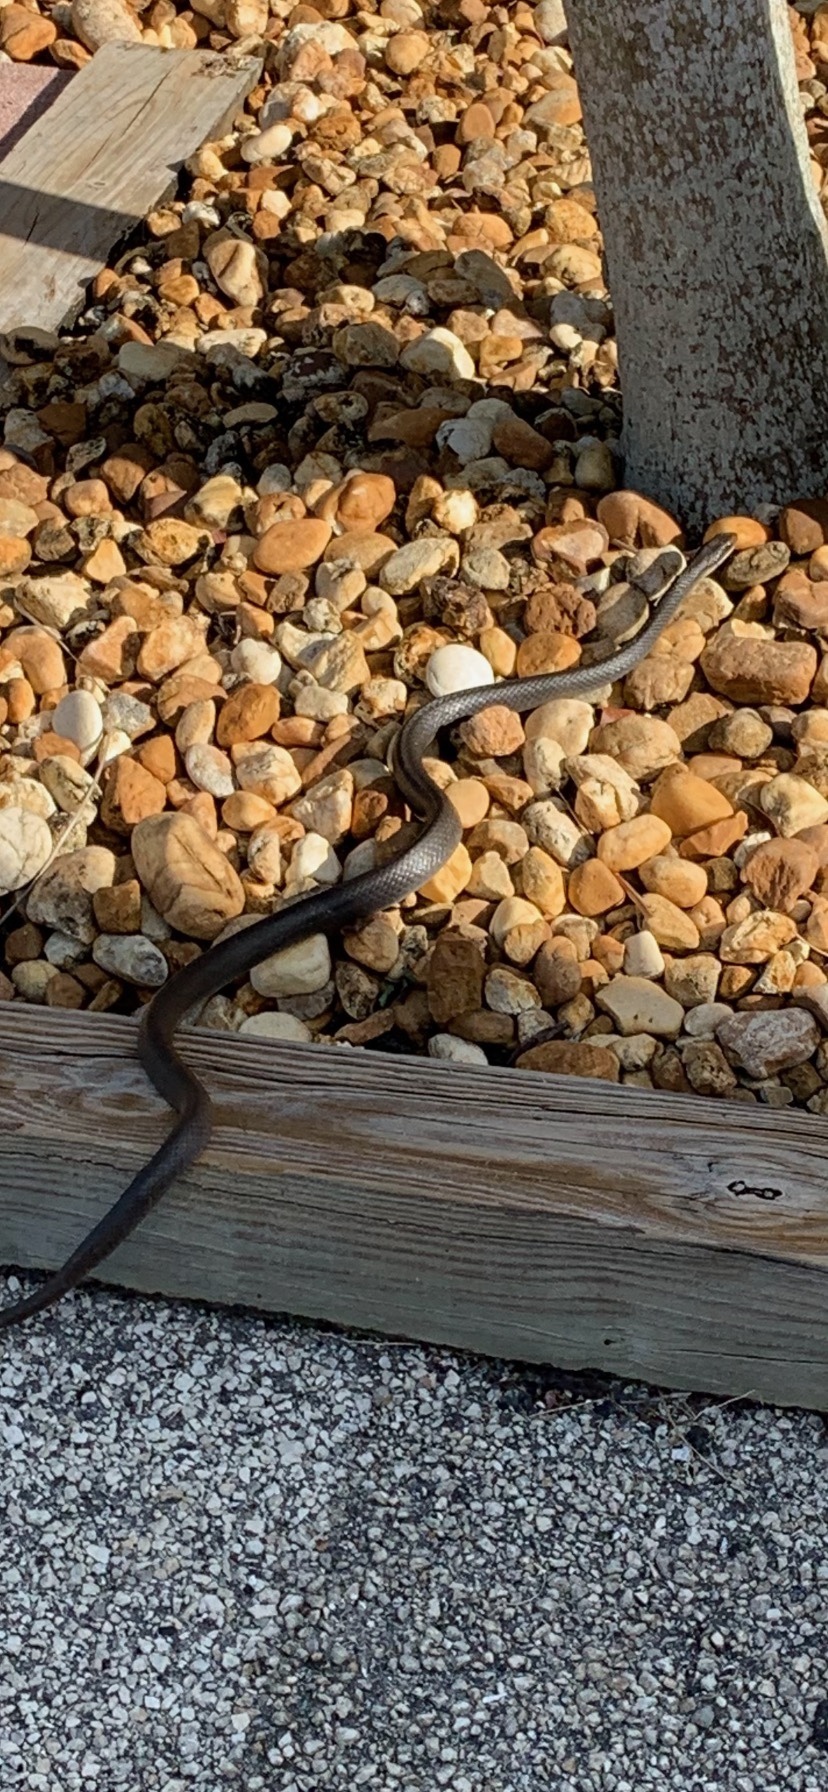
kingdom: Animalia
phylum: Chordata
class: Squamata
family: Colubridae
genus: Coluber
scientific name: Coluber constrictor
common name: Eastern racer
